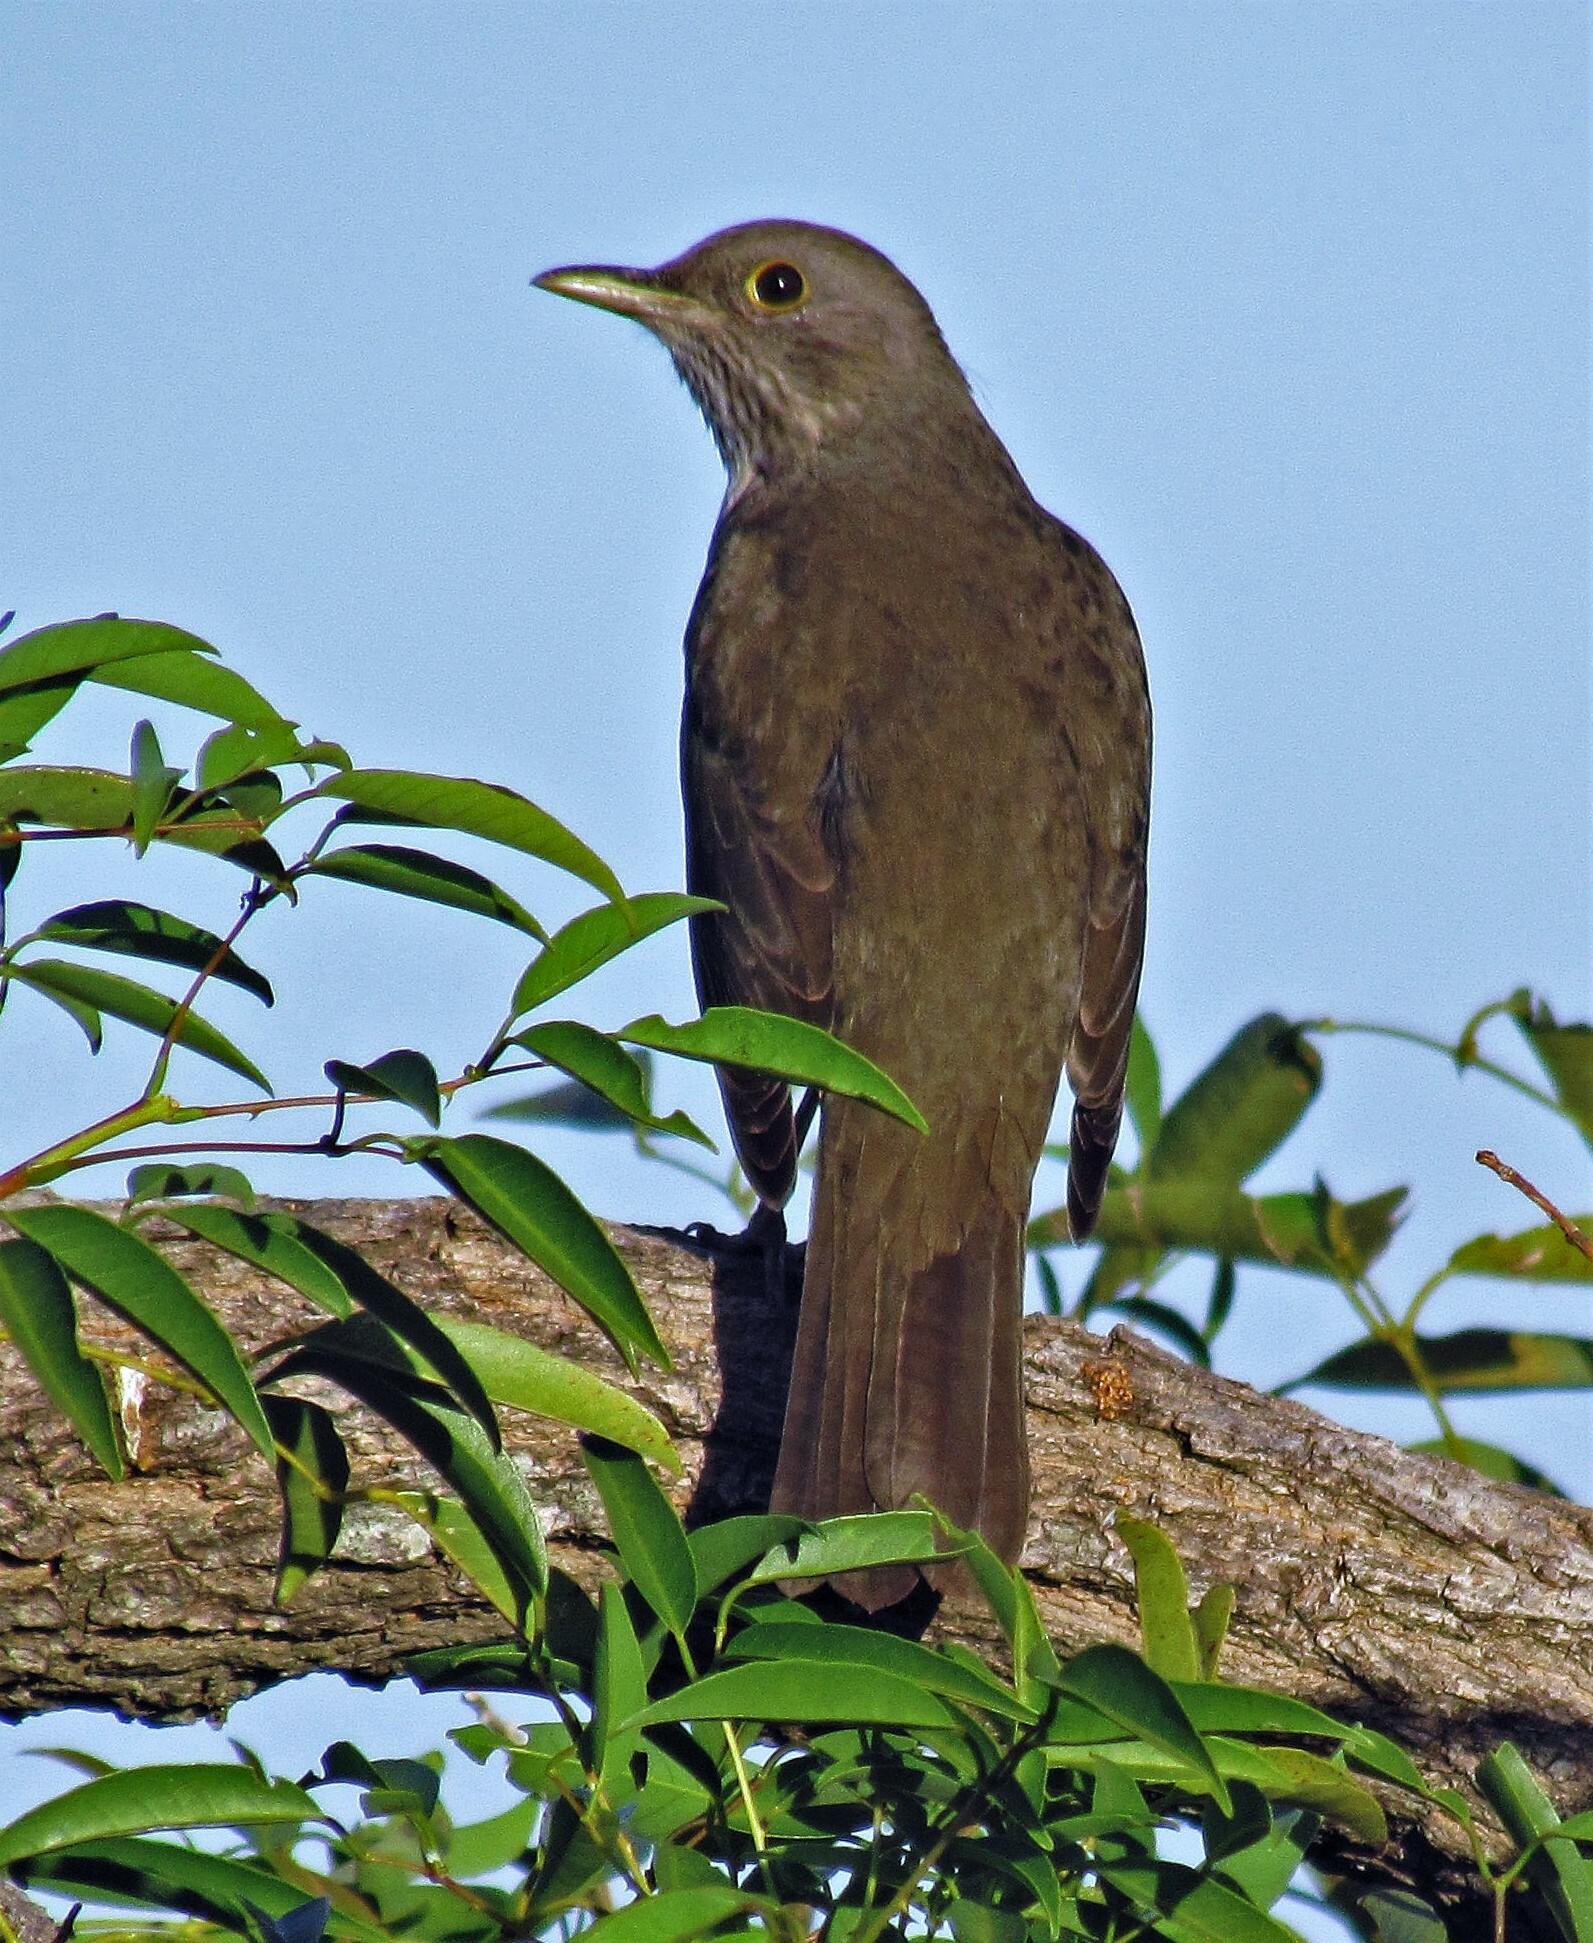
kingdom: Animalia
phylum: Chordata
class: Aves
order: Passeriformes
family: Turdidae
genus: Turdus
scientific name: Turdus rufiventris
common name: Rufous-bellied thrush
